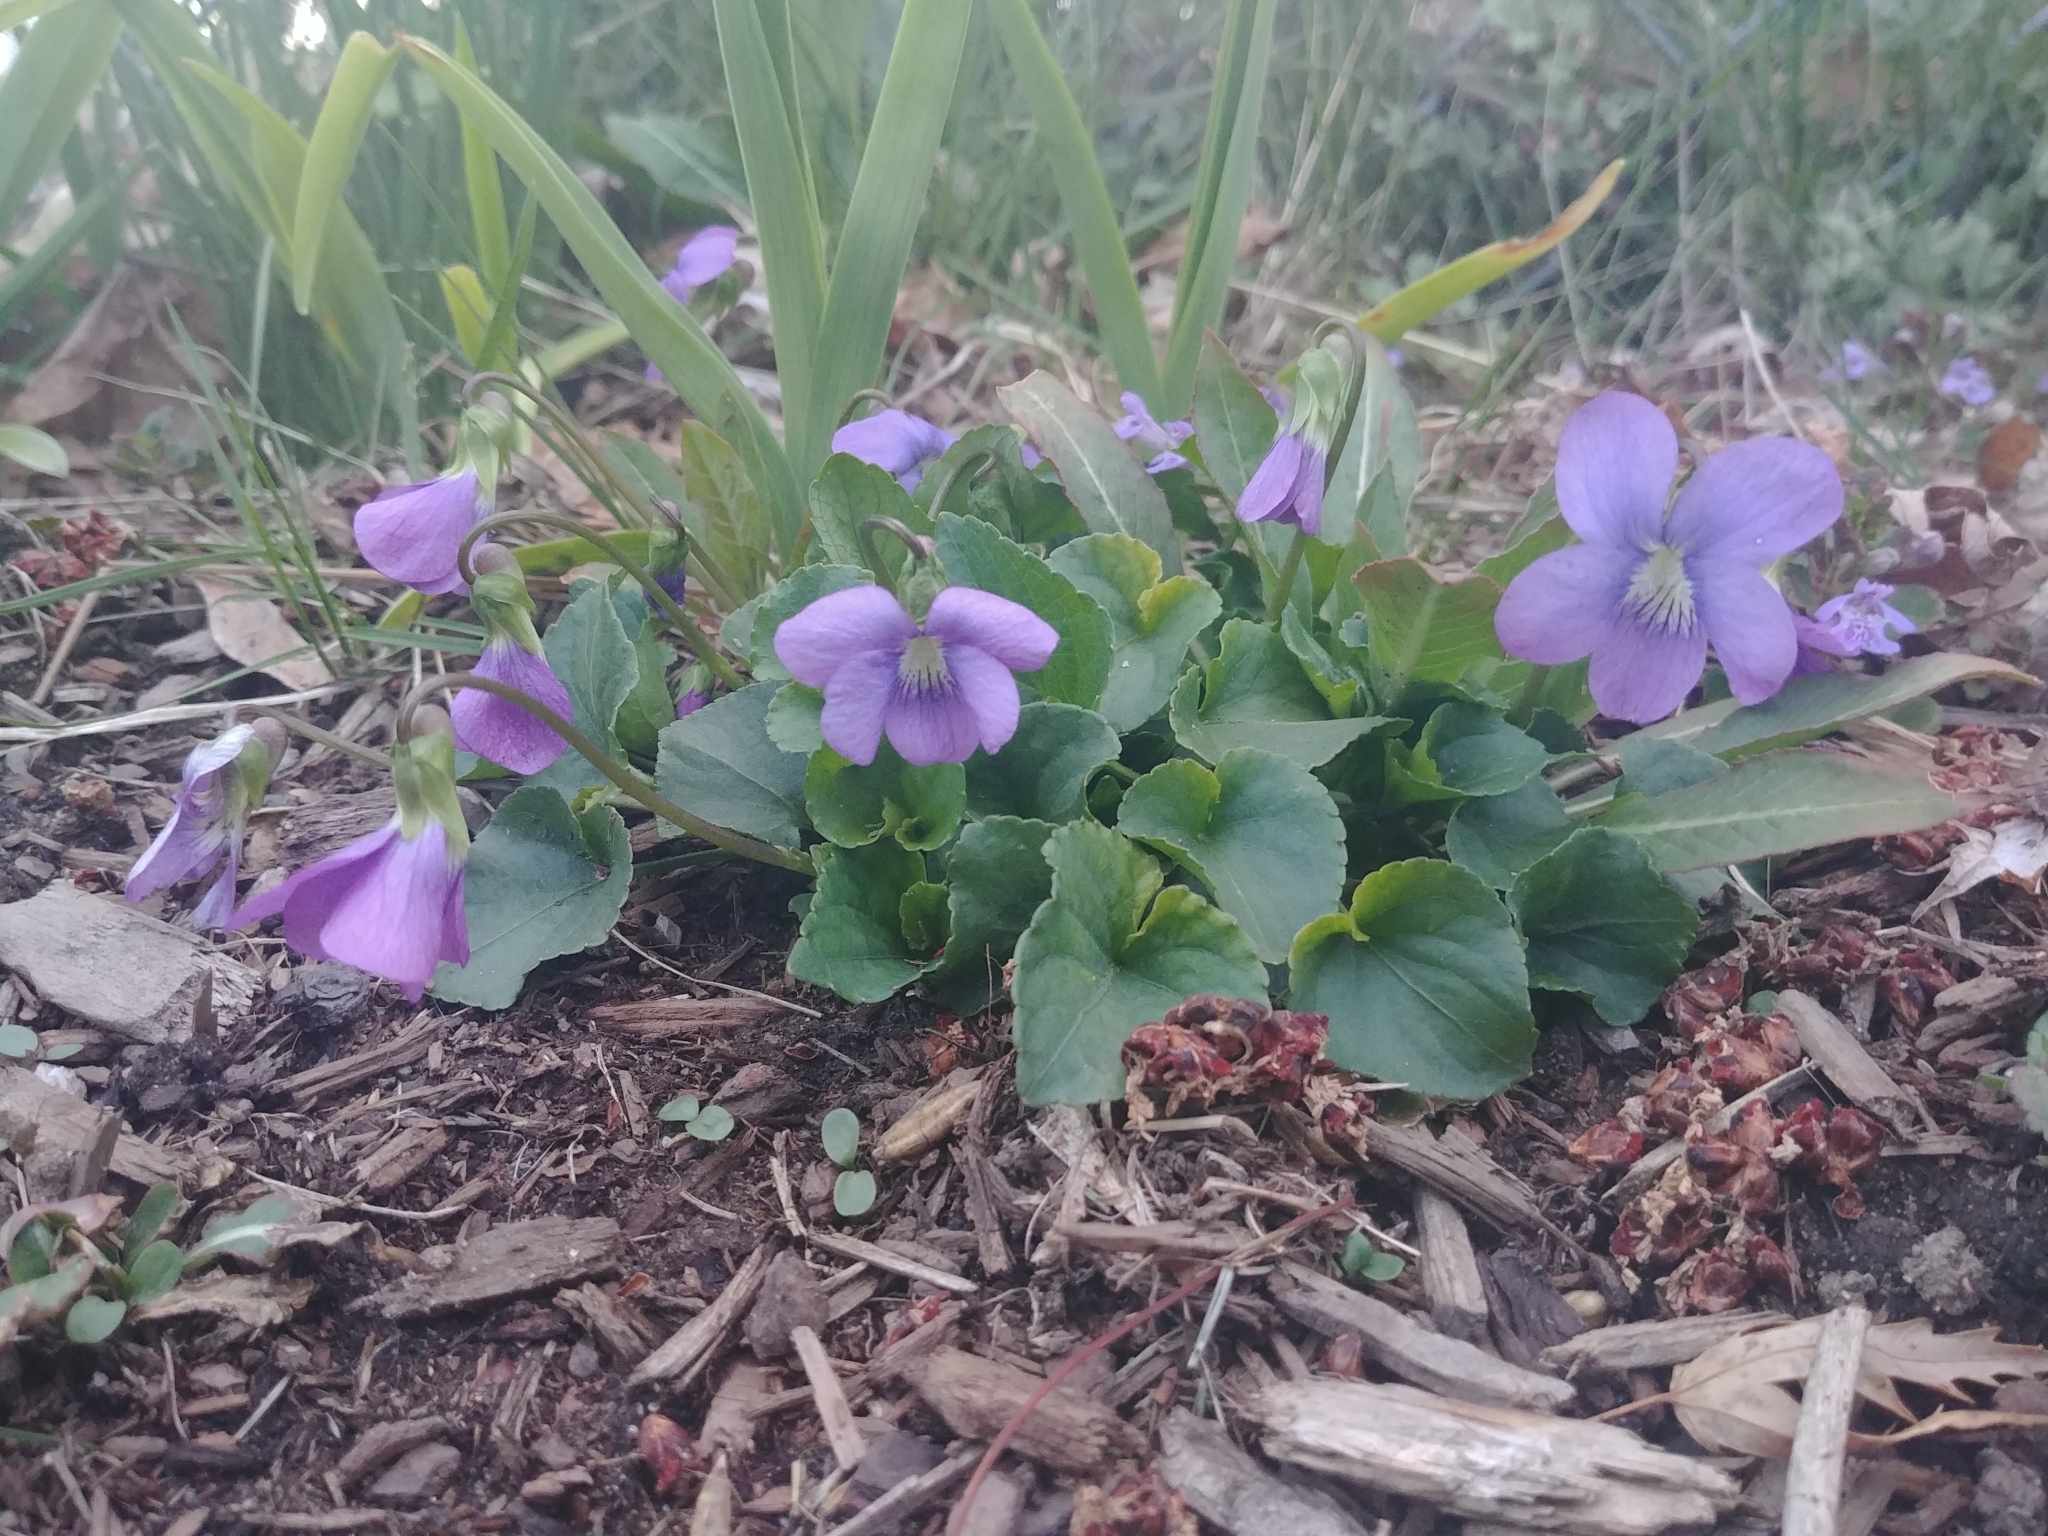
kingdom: Plantae
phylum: Tracheophyta
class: Magnoliopsida
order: Malpighiales
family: Violaceae
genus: Viola
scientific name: Viola sororia
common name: Dooryard violet
